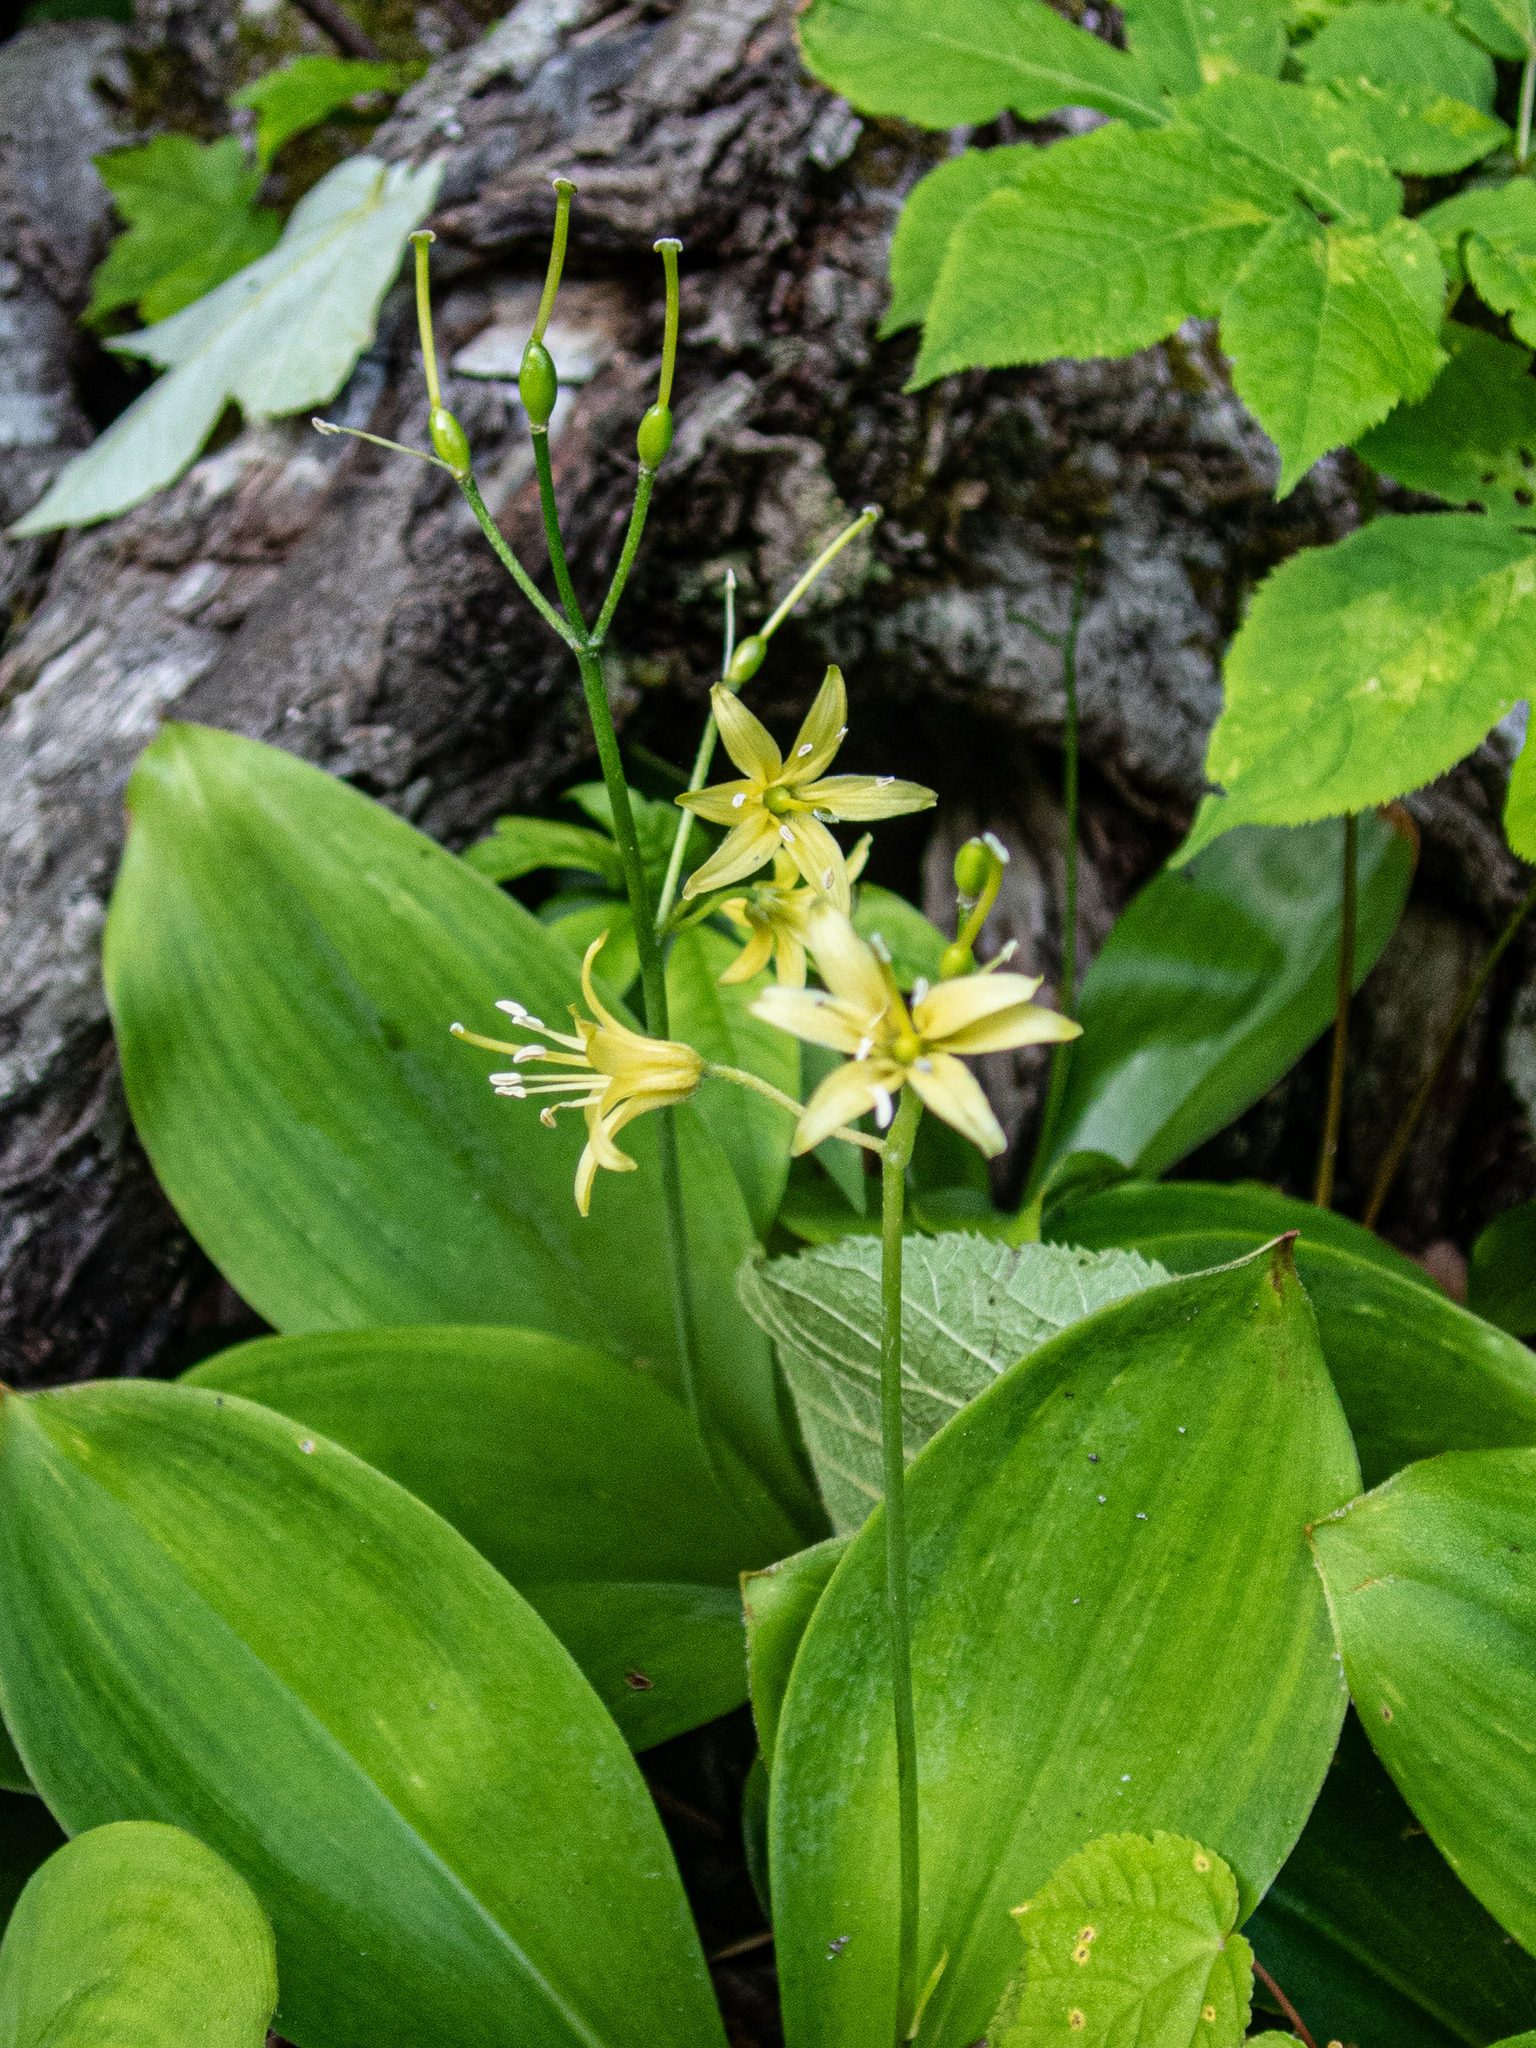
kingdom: Plantae
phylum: Tracheophyta
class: Liliopsida
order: Liliales
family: Liliaceae
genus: Clintonia
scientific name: Clintonia borealis
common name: Yellow clintonia
